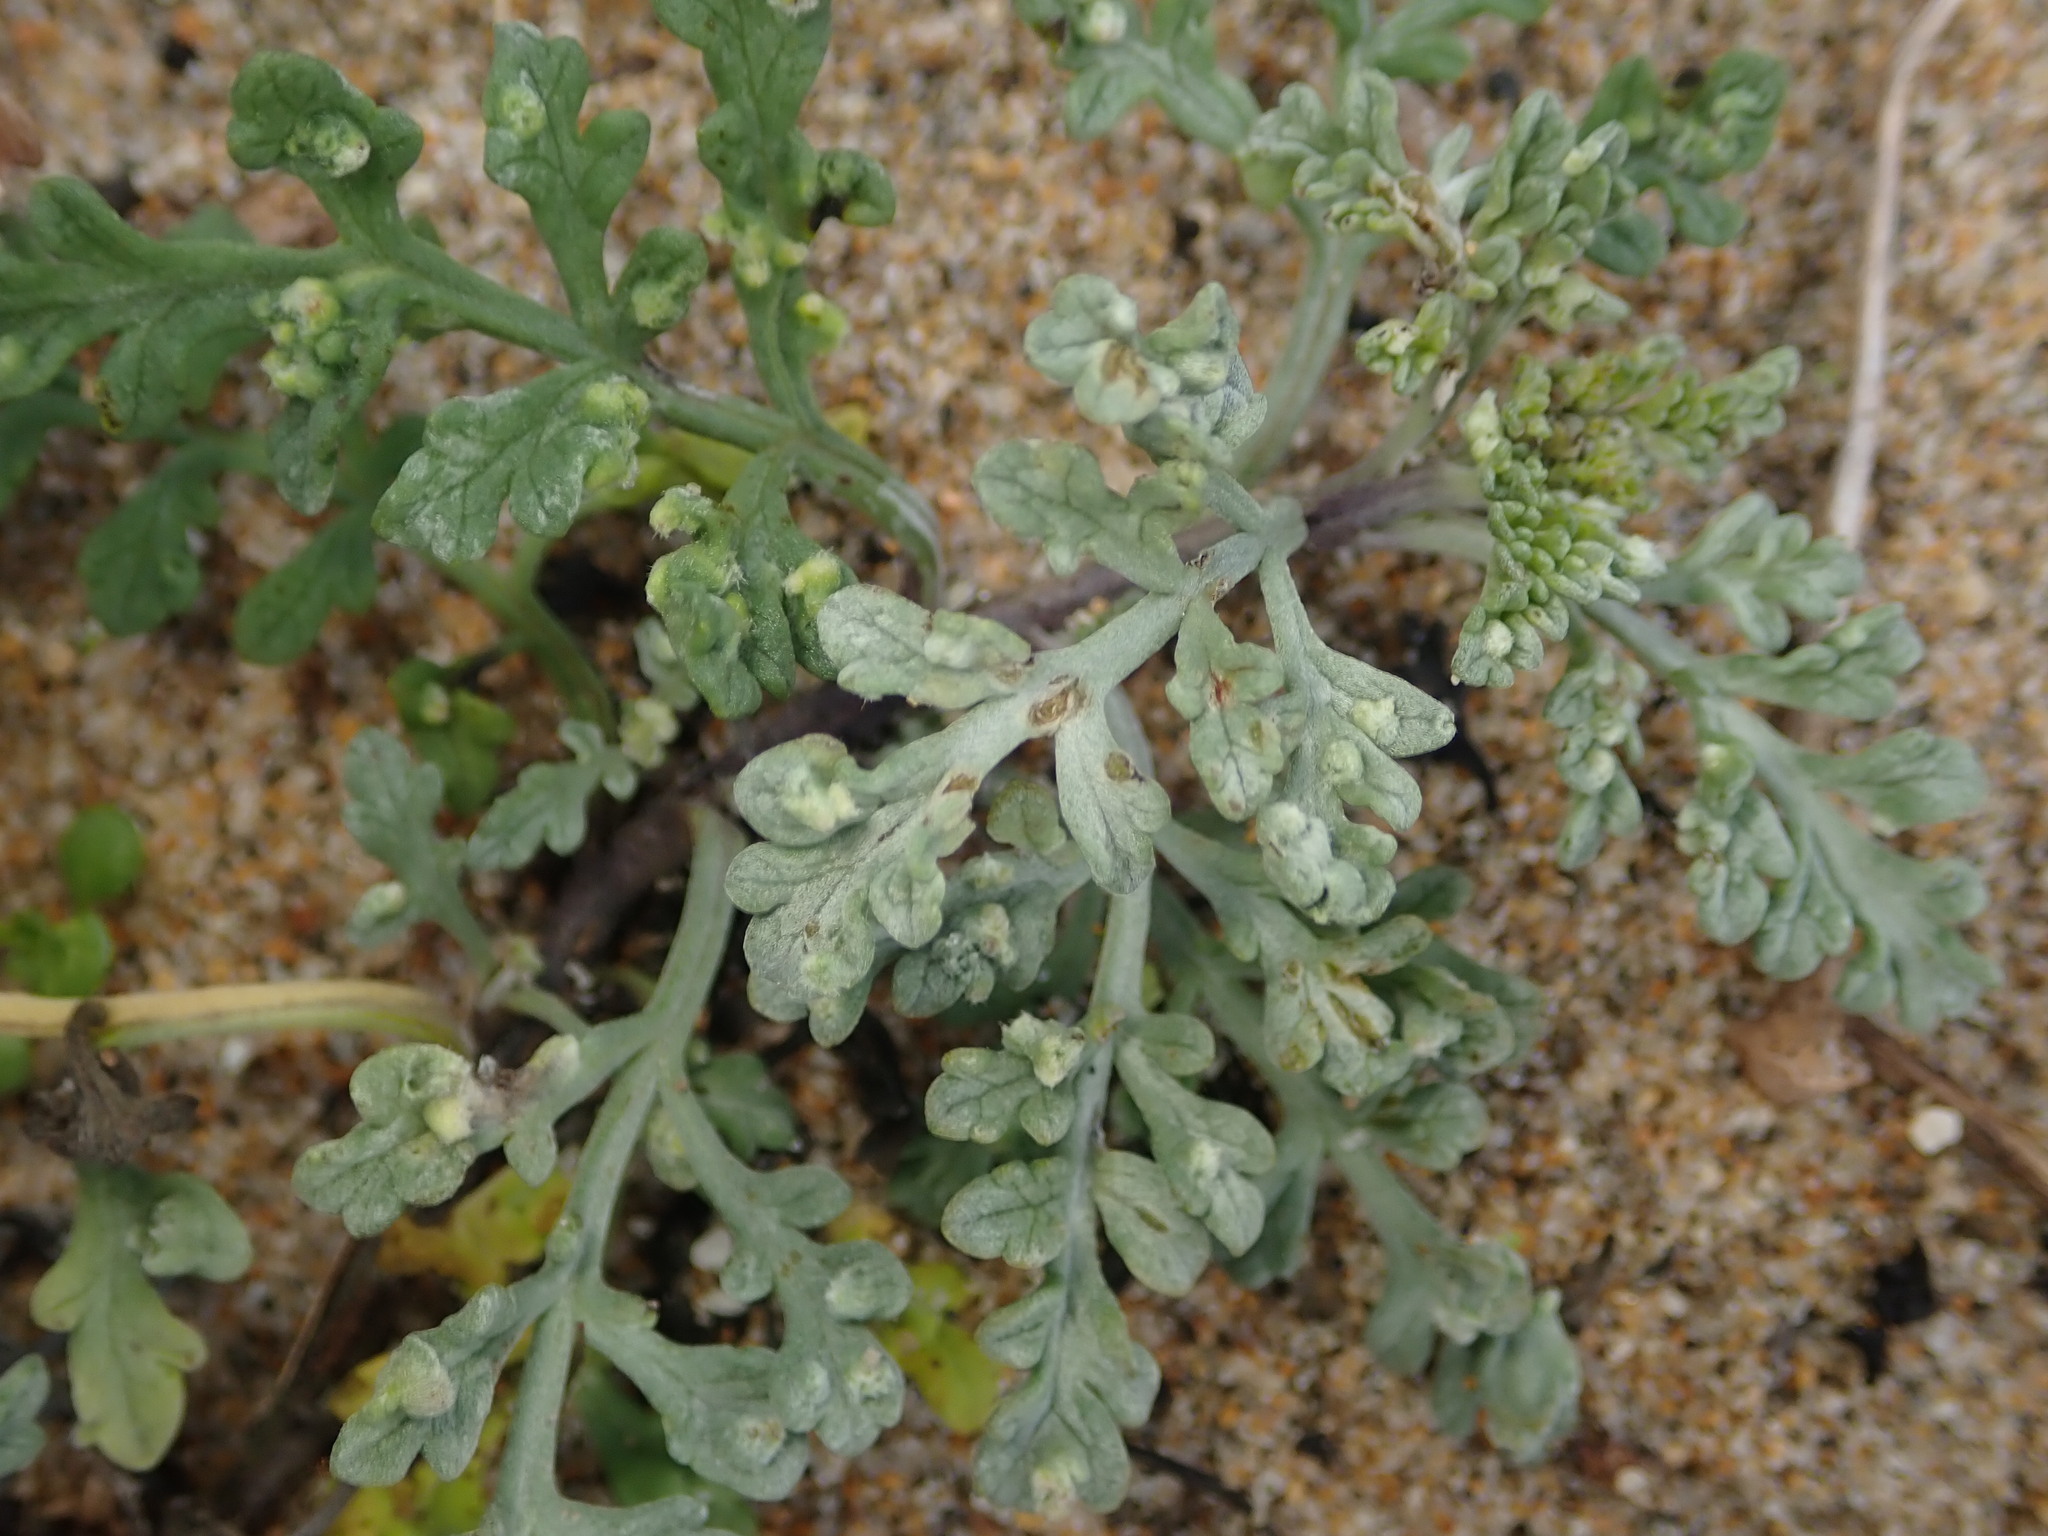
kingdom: Plantae
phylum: Tracheophyta
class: Magnoliopsida
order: Asterales
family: Asteraceae
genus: Ambrosia
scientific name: Ambrosia chamissonis
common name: Beachbur
